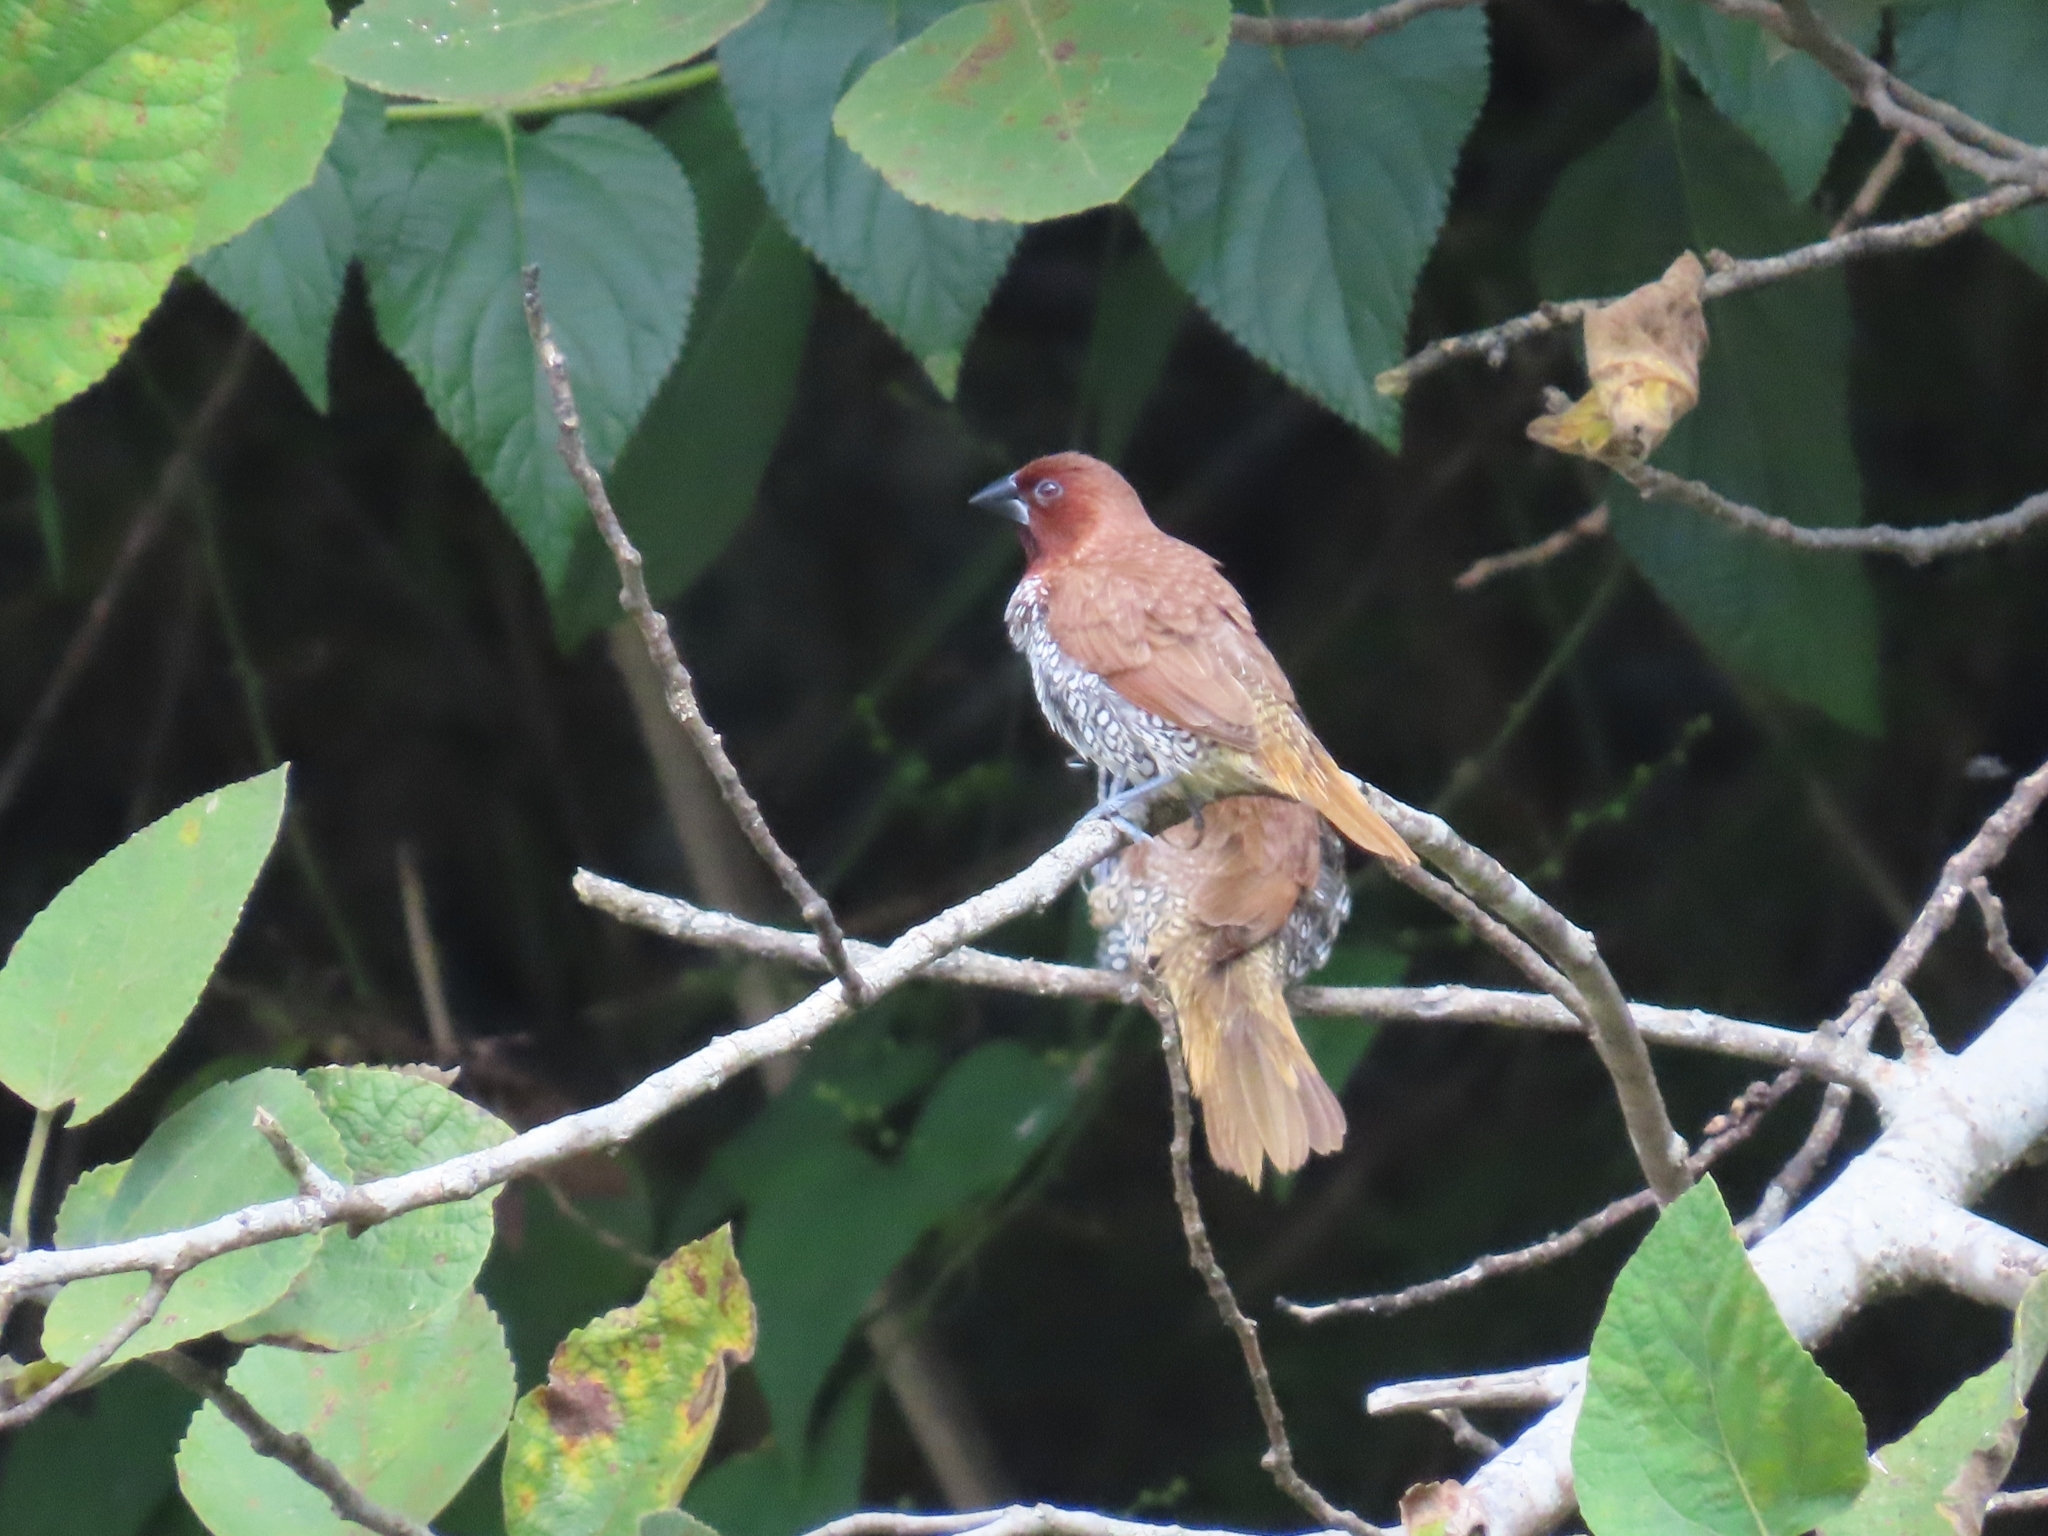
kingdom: Animalia
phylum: Chordata
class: Aves
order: Passeriformes
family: Estrildidae
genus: Lonchura
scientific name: Lonchura punctulata
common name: Scaly-breasted munia
